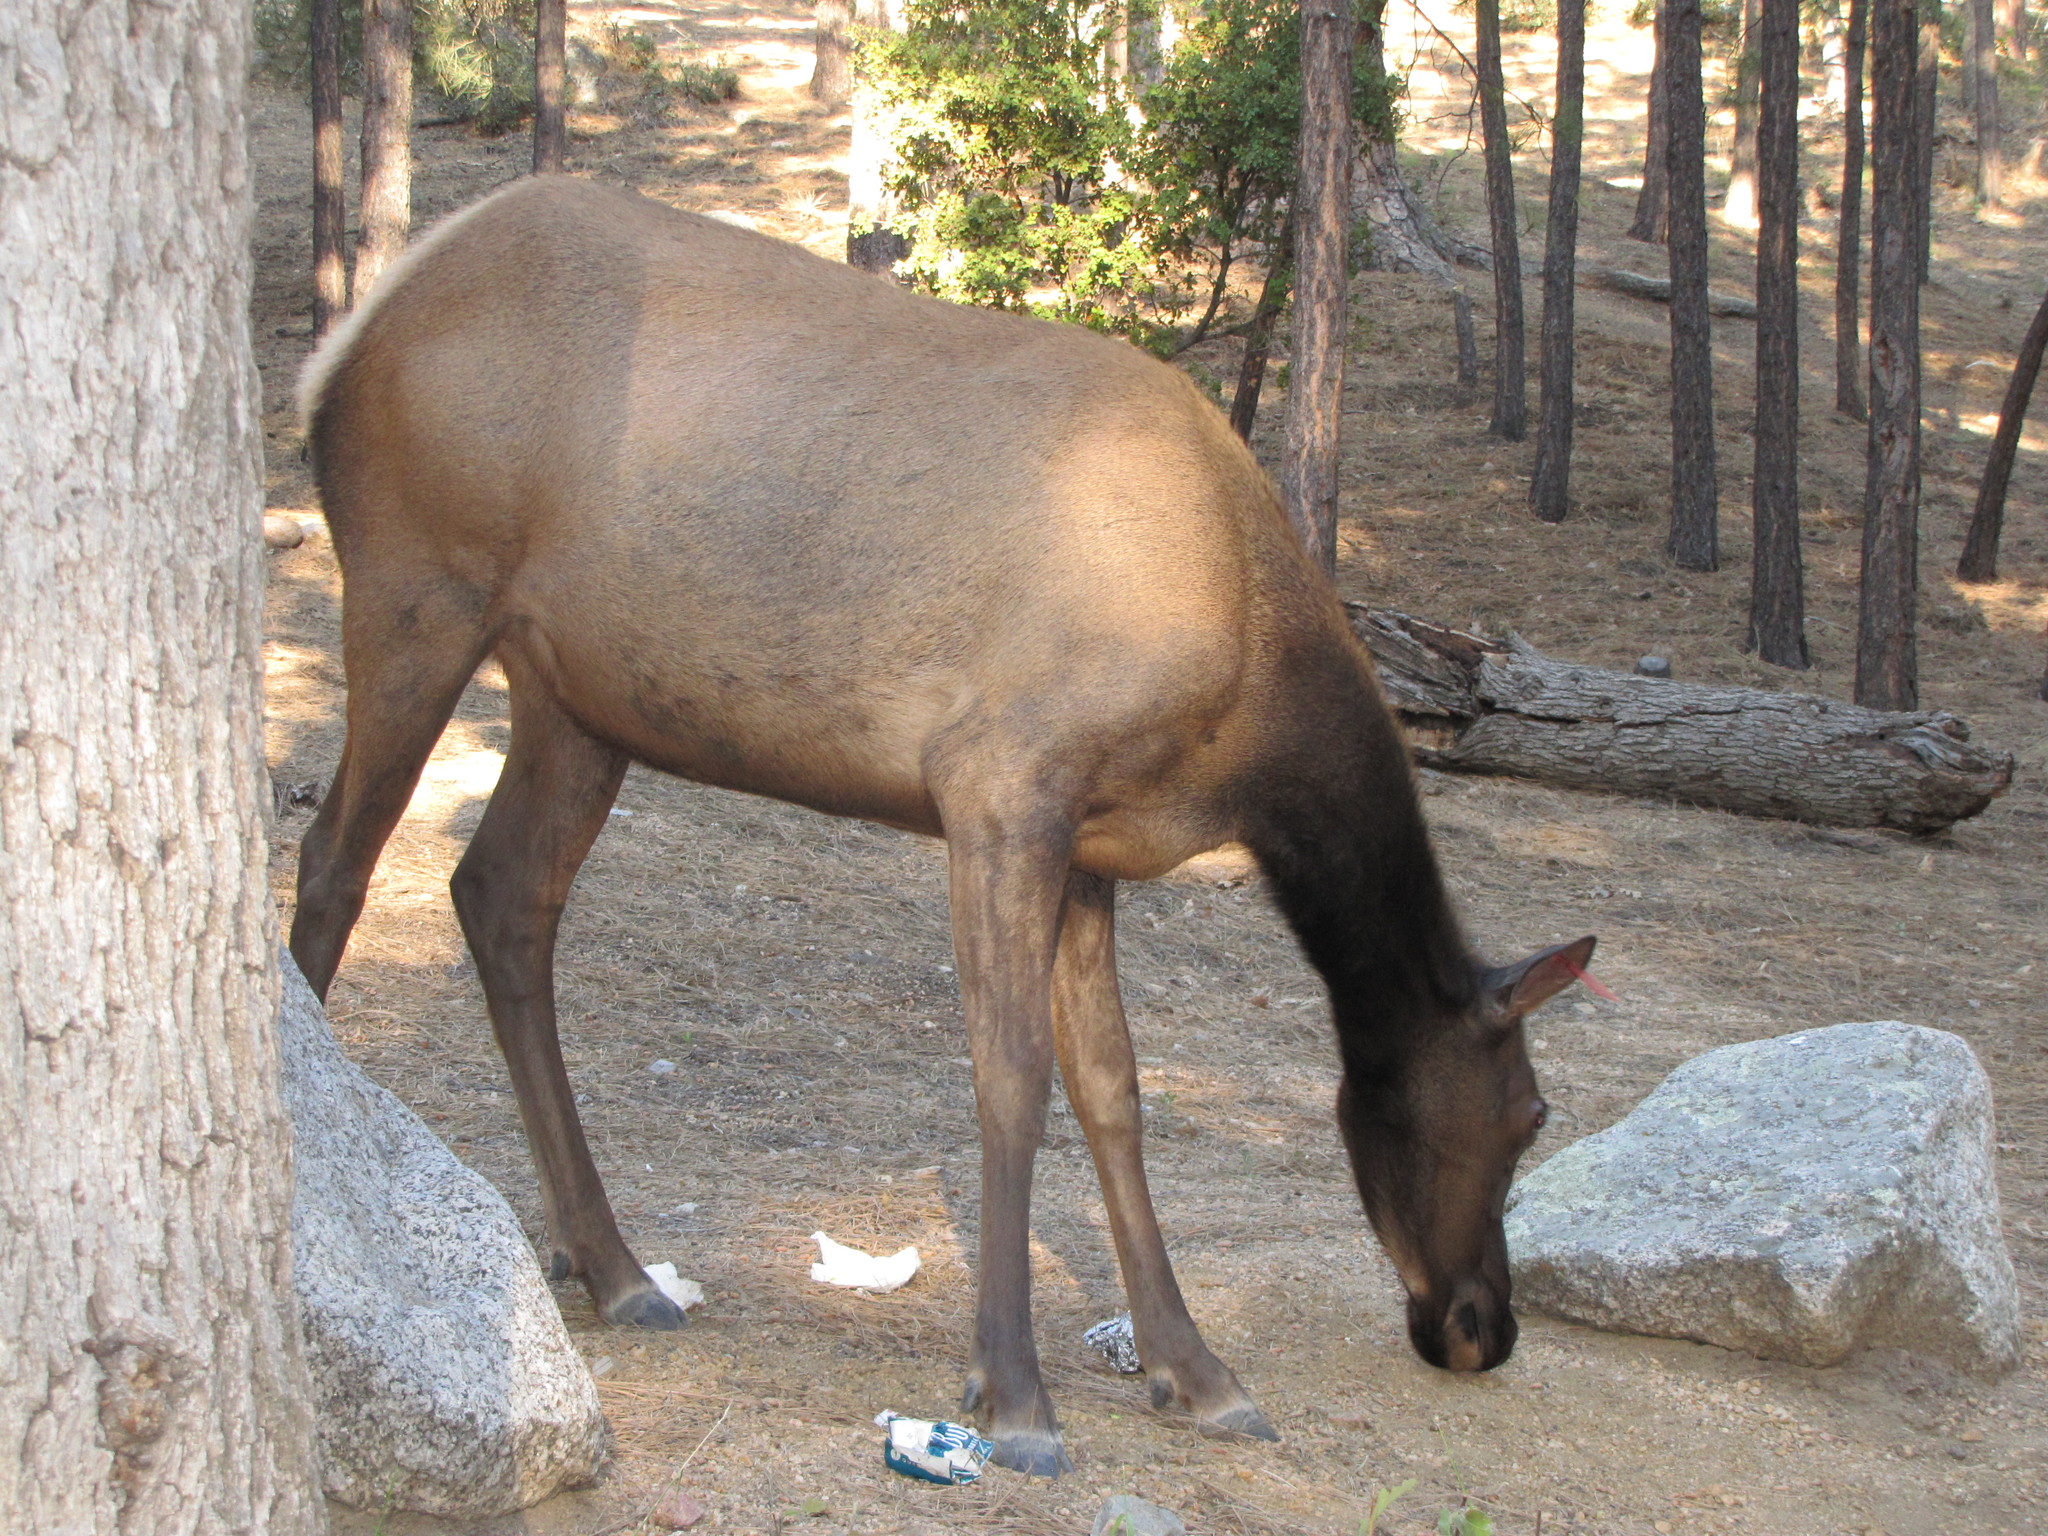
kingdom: Animalia
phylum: Chordata
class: Mammalia
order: Artiodactyla
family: Cervidae
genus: Cervus
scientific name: Cervus elaphus
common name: Red deer
